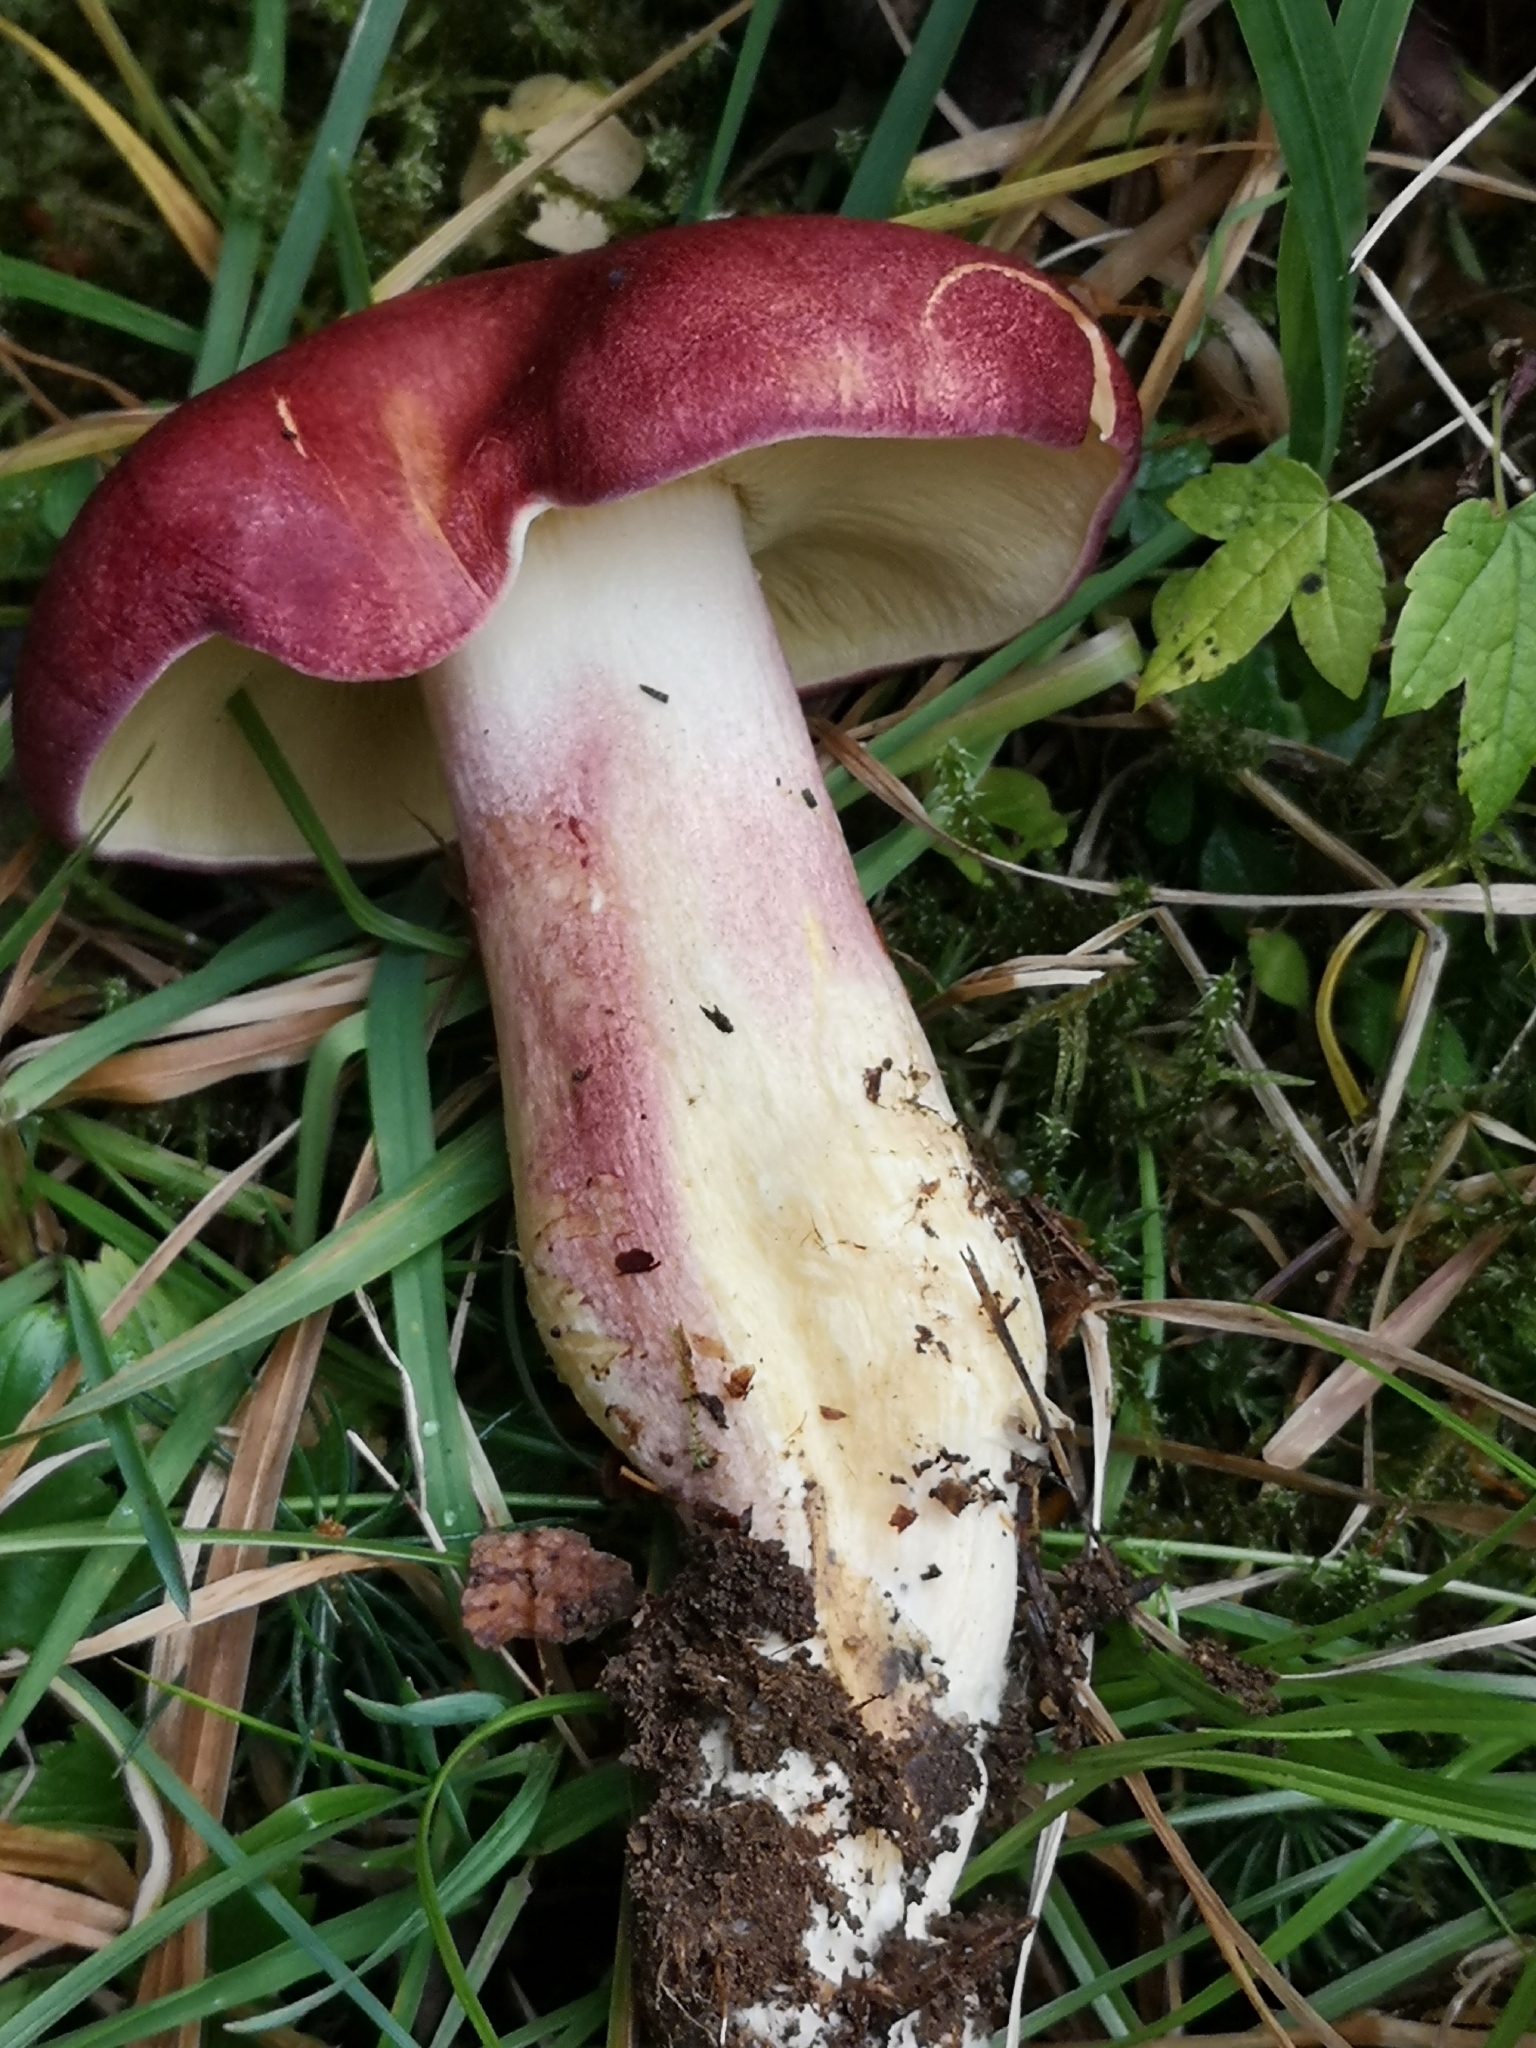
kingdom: Fungi
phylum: Basidiomycota
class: Agaricomycetes
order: Agaricales
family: Tricholomataceae
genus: Tricholomopsis
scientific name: Tricholomopsis rutilans
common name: Plums and custard
